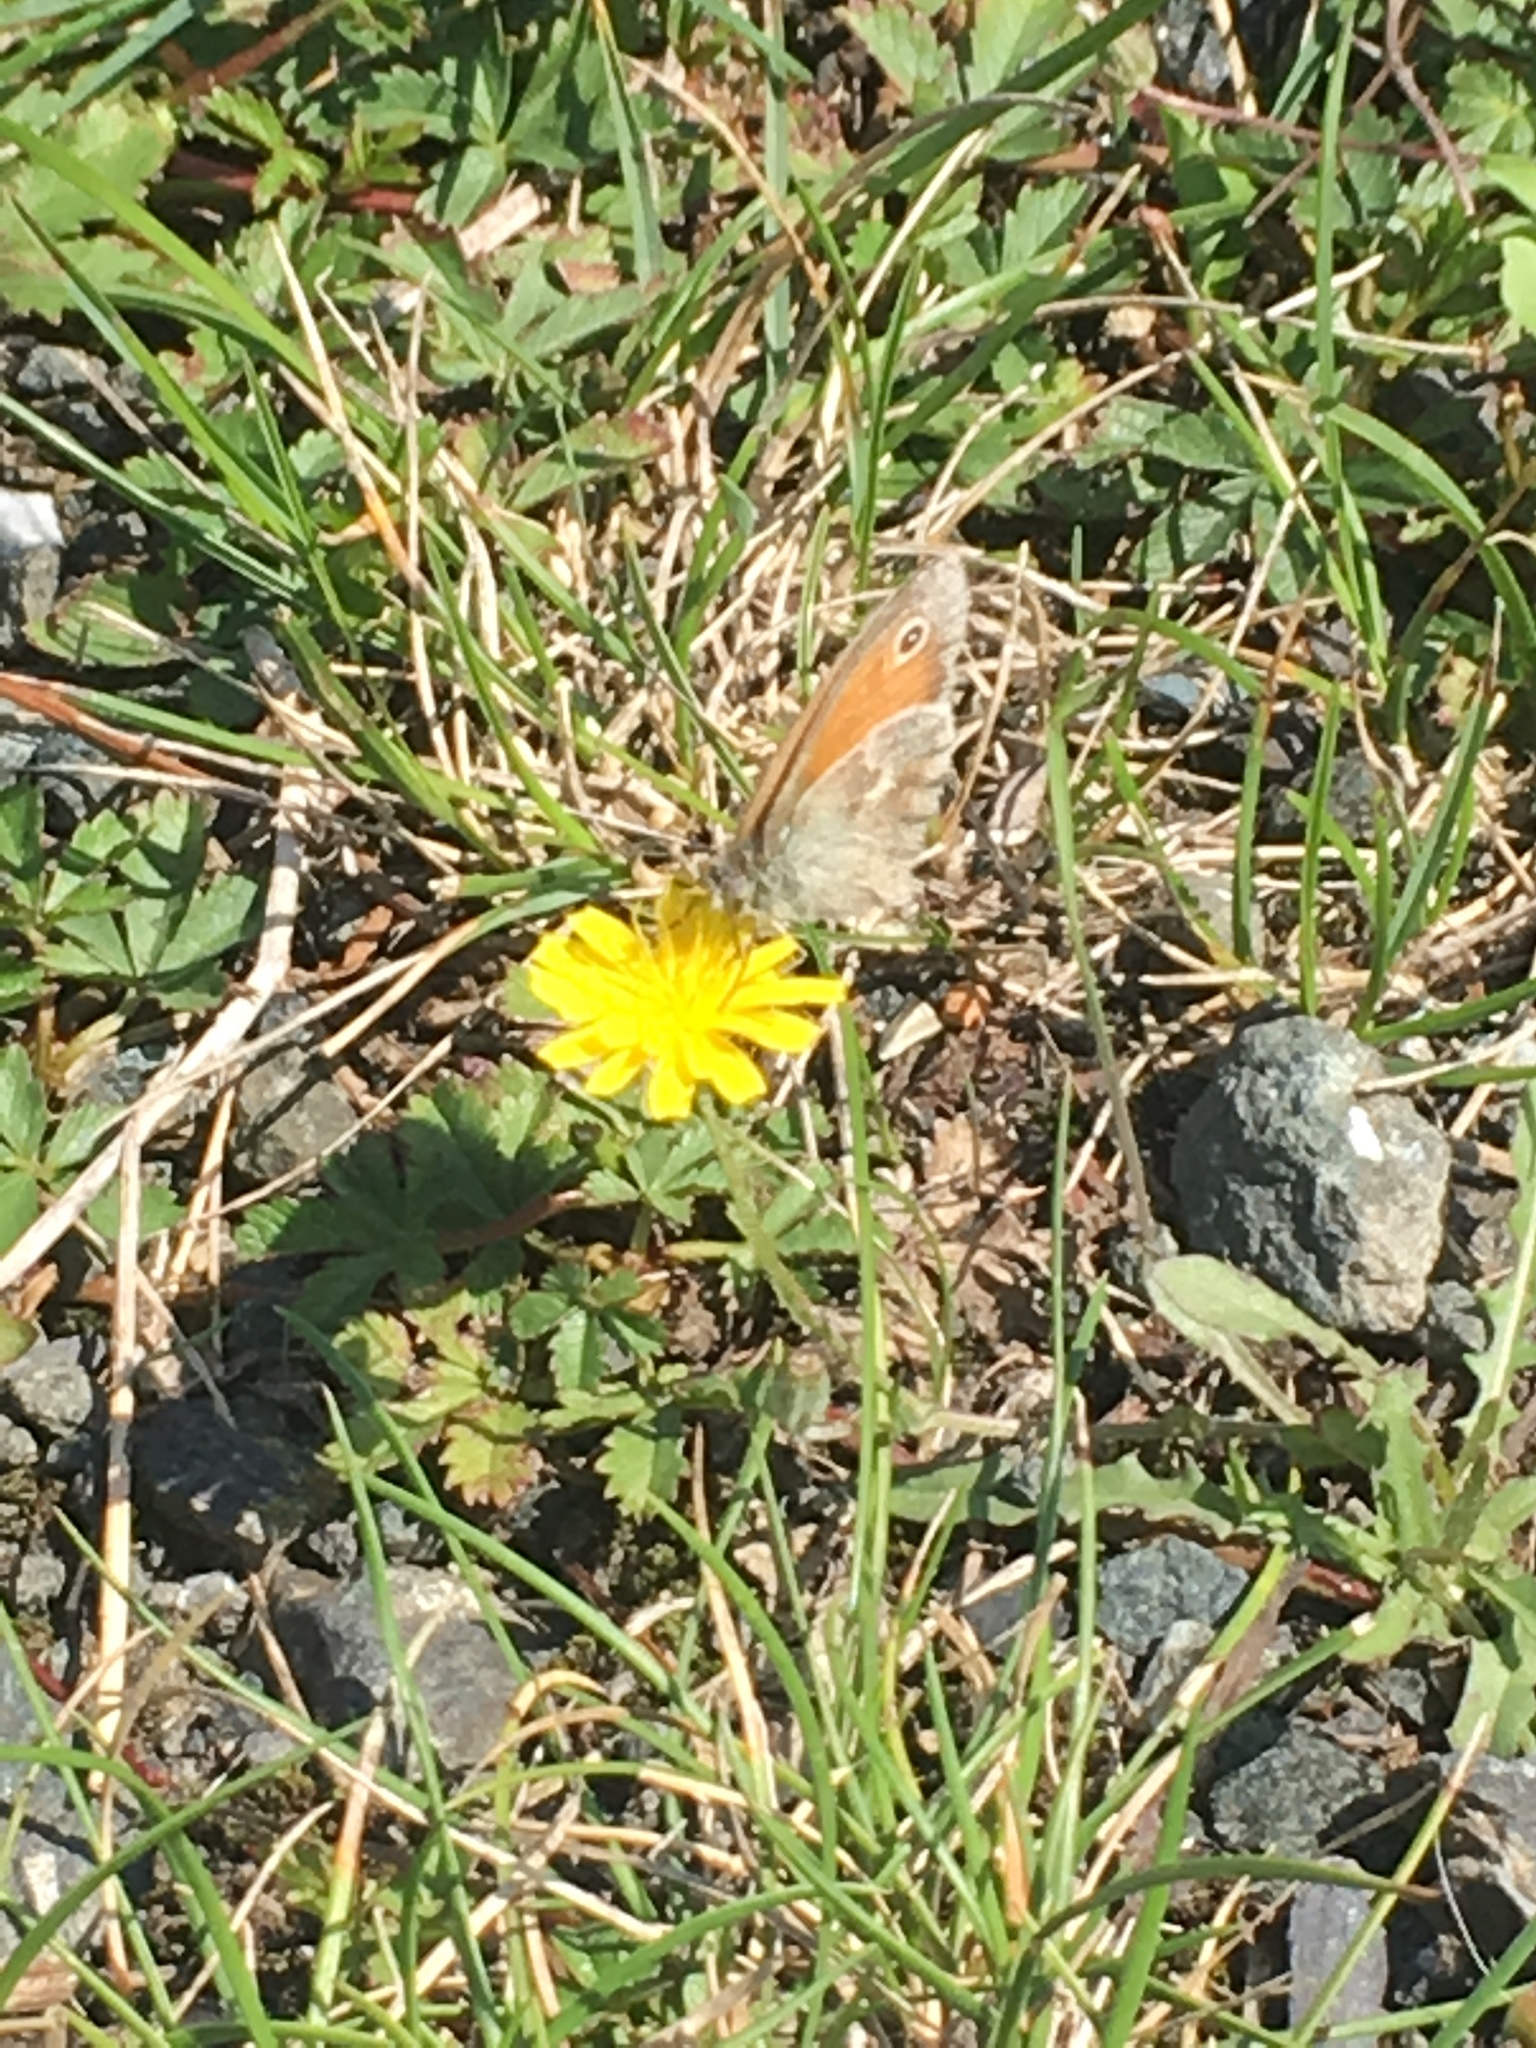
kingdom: Animalia
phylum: Arthropoda
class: Insecta
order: Lepidoptera
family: Nymphalidae
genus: Coenonympha
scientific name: Coenonympha pamphilus
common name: Small heath
